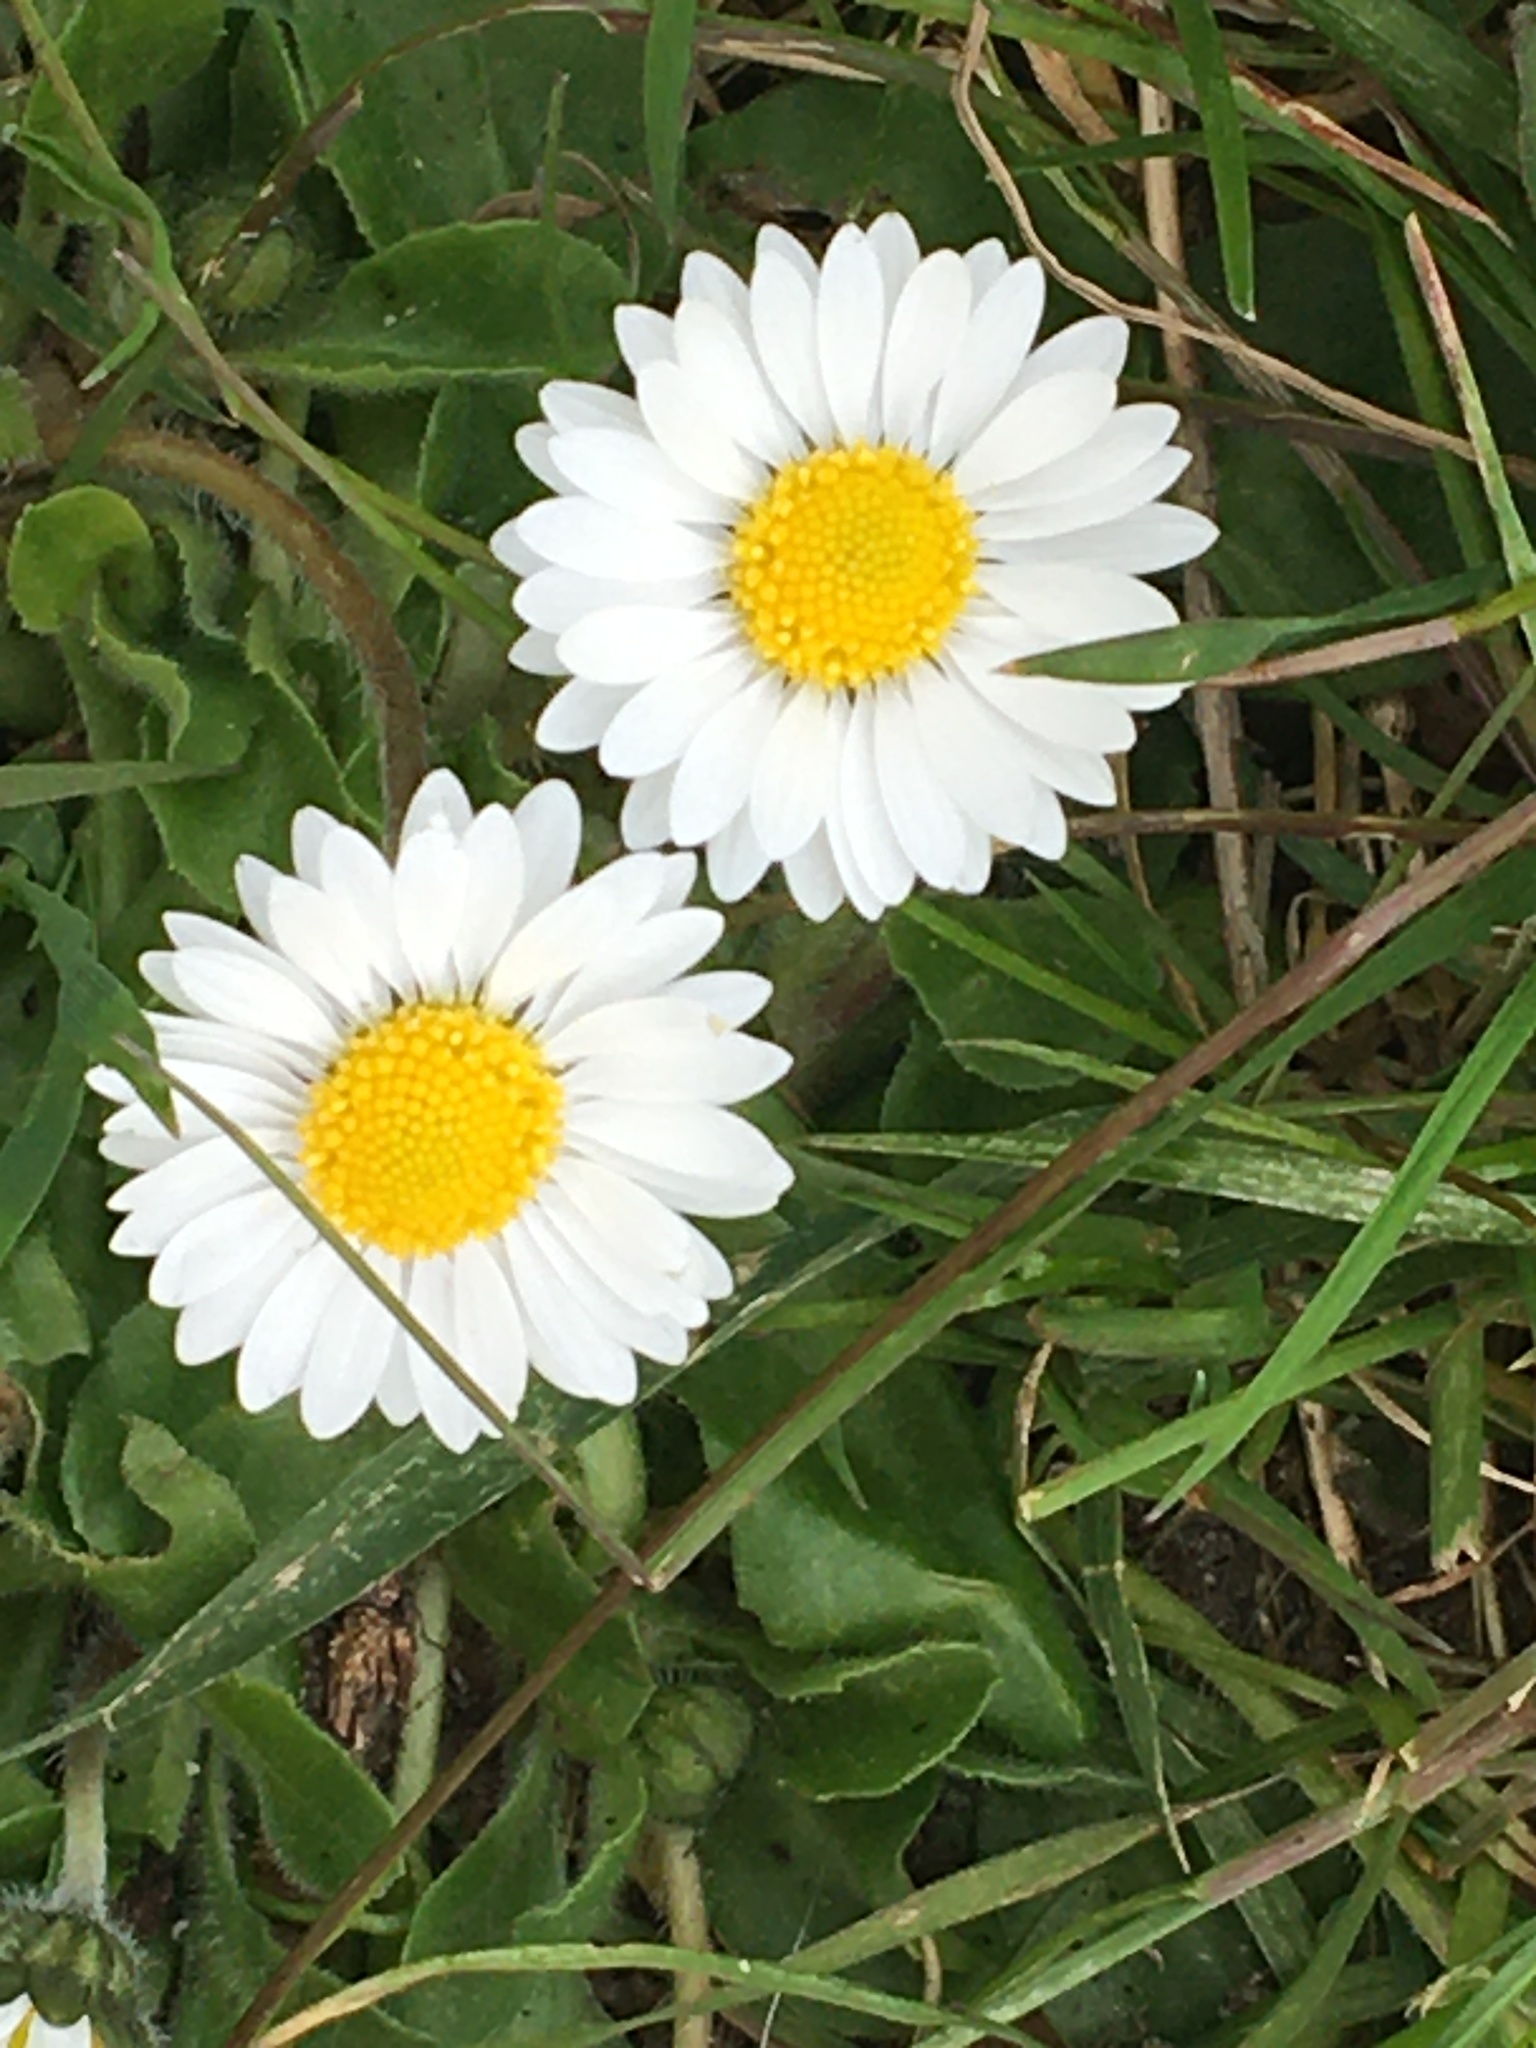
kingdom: Plantae
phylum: Tracheophyta
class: Magnoliopsida
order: Asterales
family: Asteraceae
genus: Bellis
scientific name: Bellis perennis
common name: Lawndaisy
